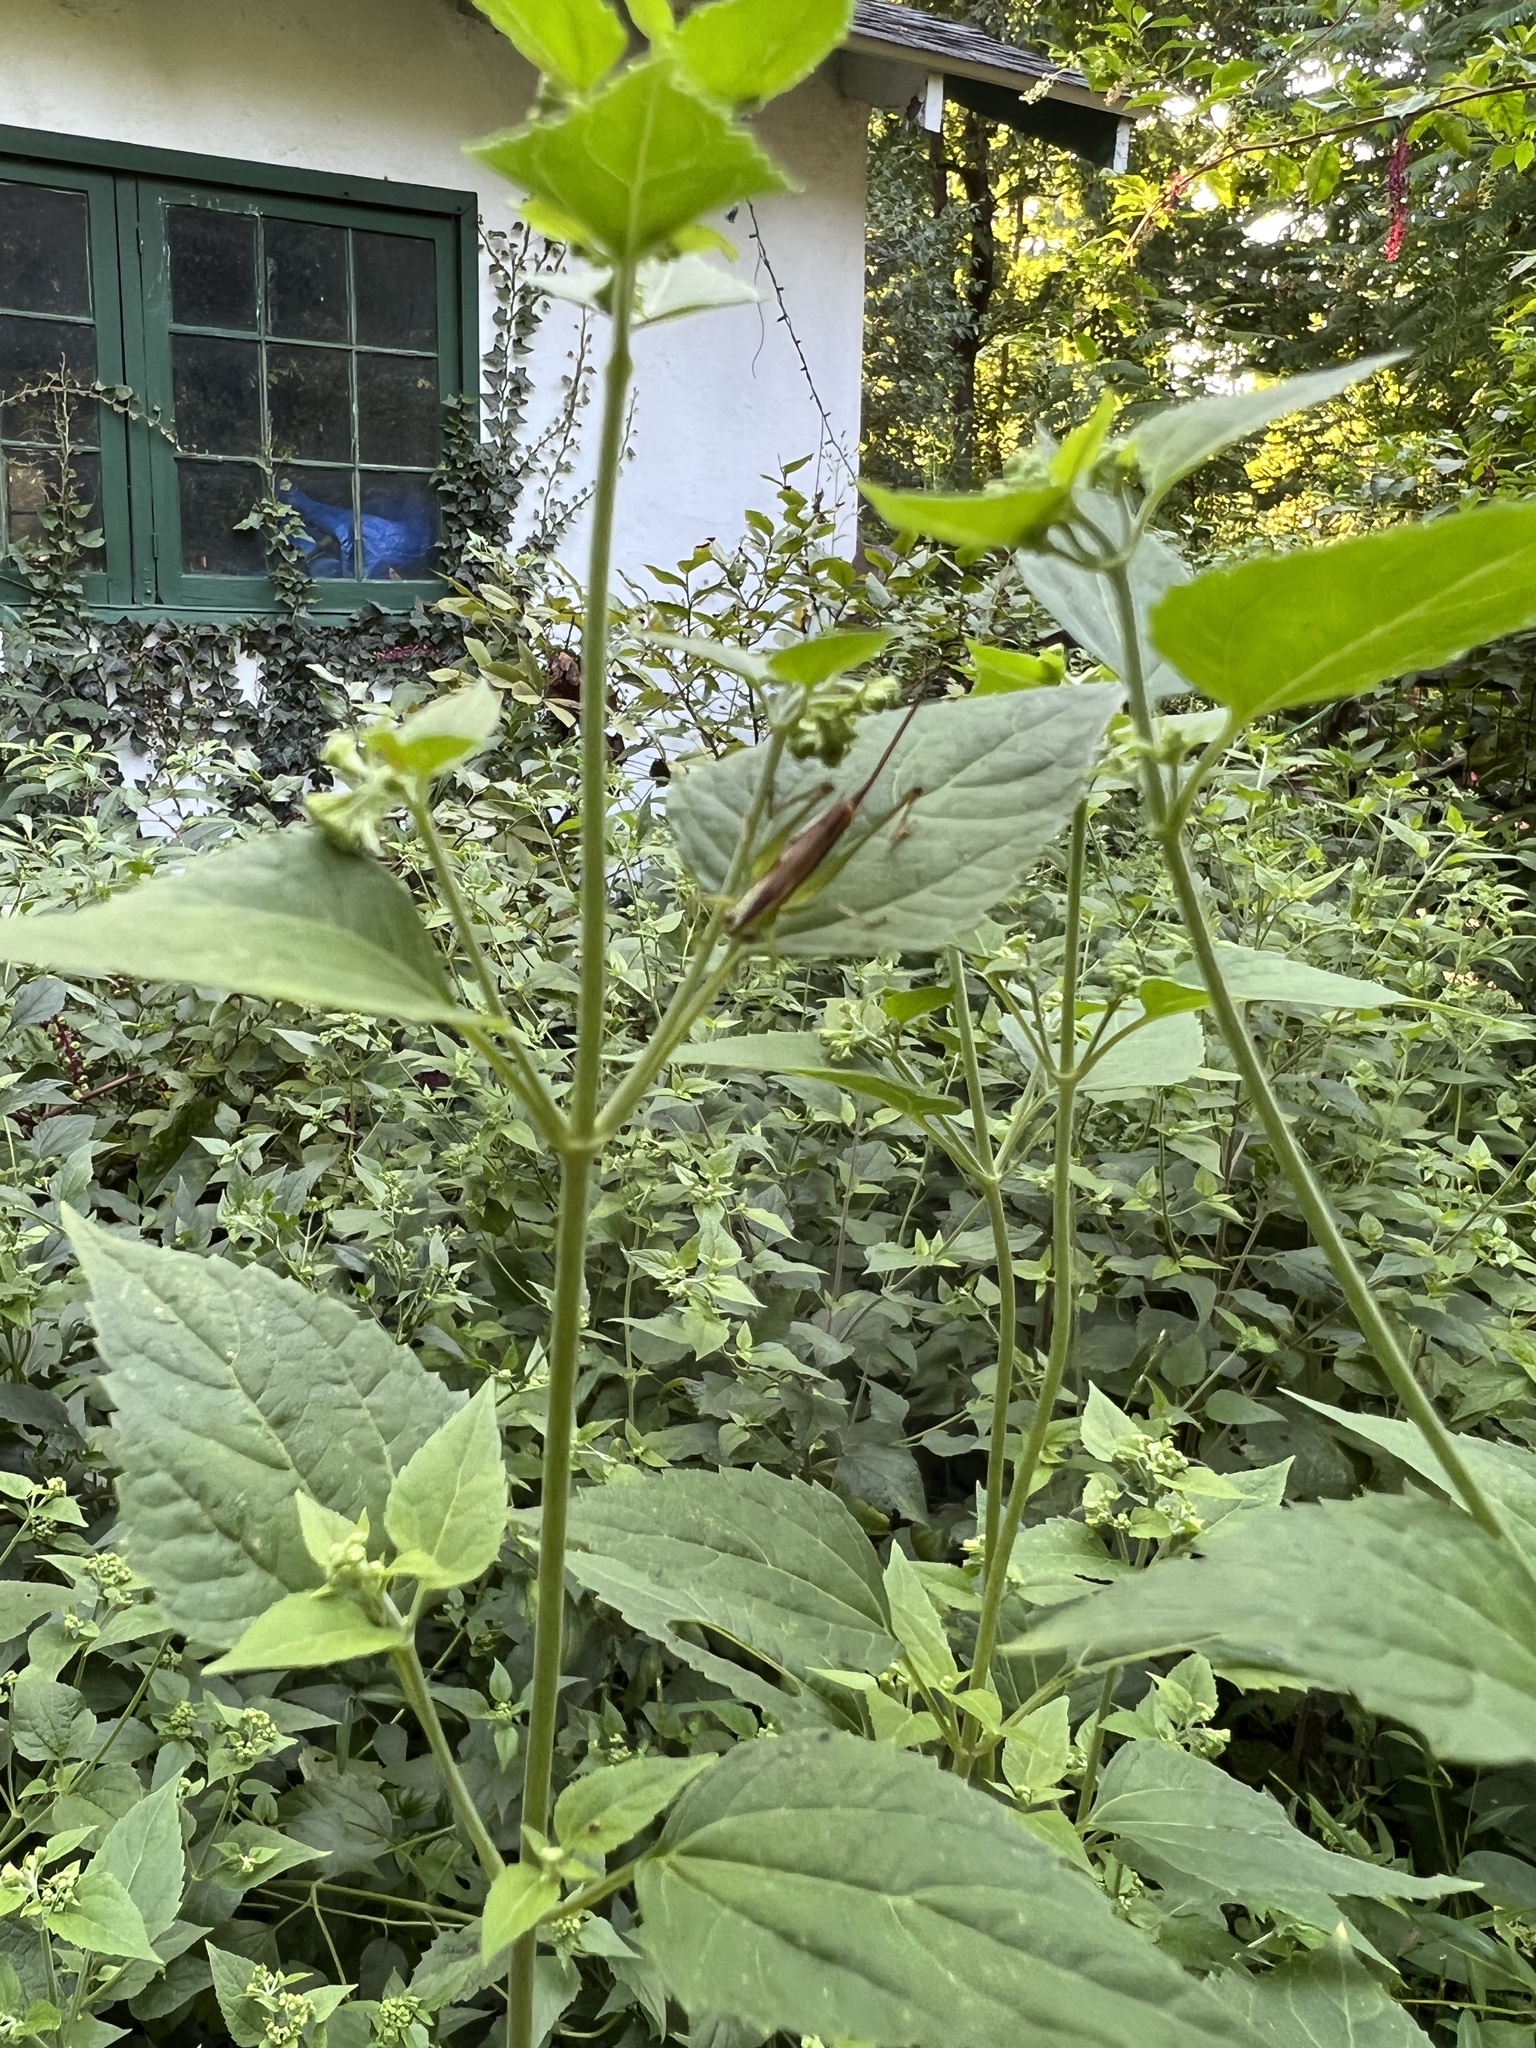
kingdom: Animalia
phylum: Arthropoda
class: Insecta
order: Orthoptera
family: Tettigoniidae
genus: Conocephalus
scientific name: Conocephalus brevipennis
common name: Short-winged meadow katydid
